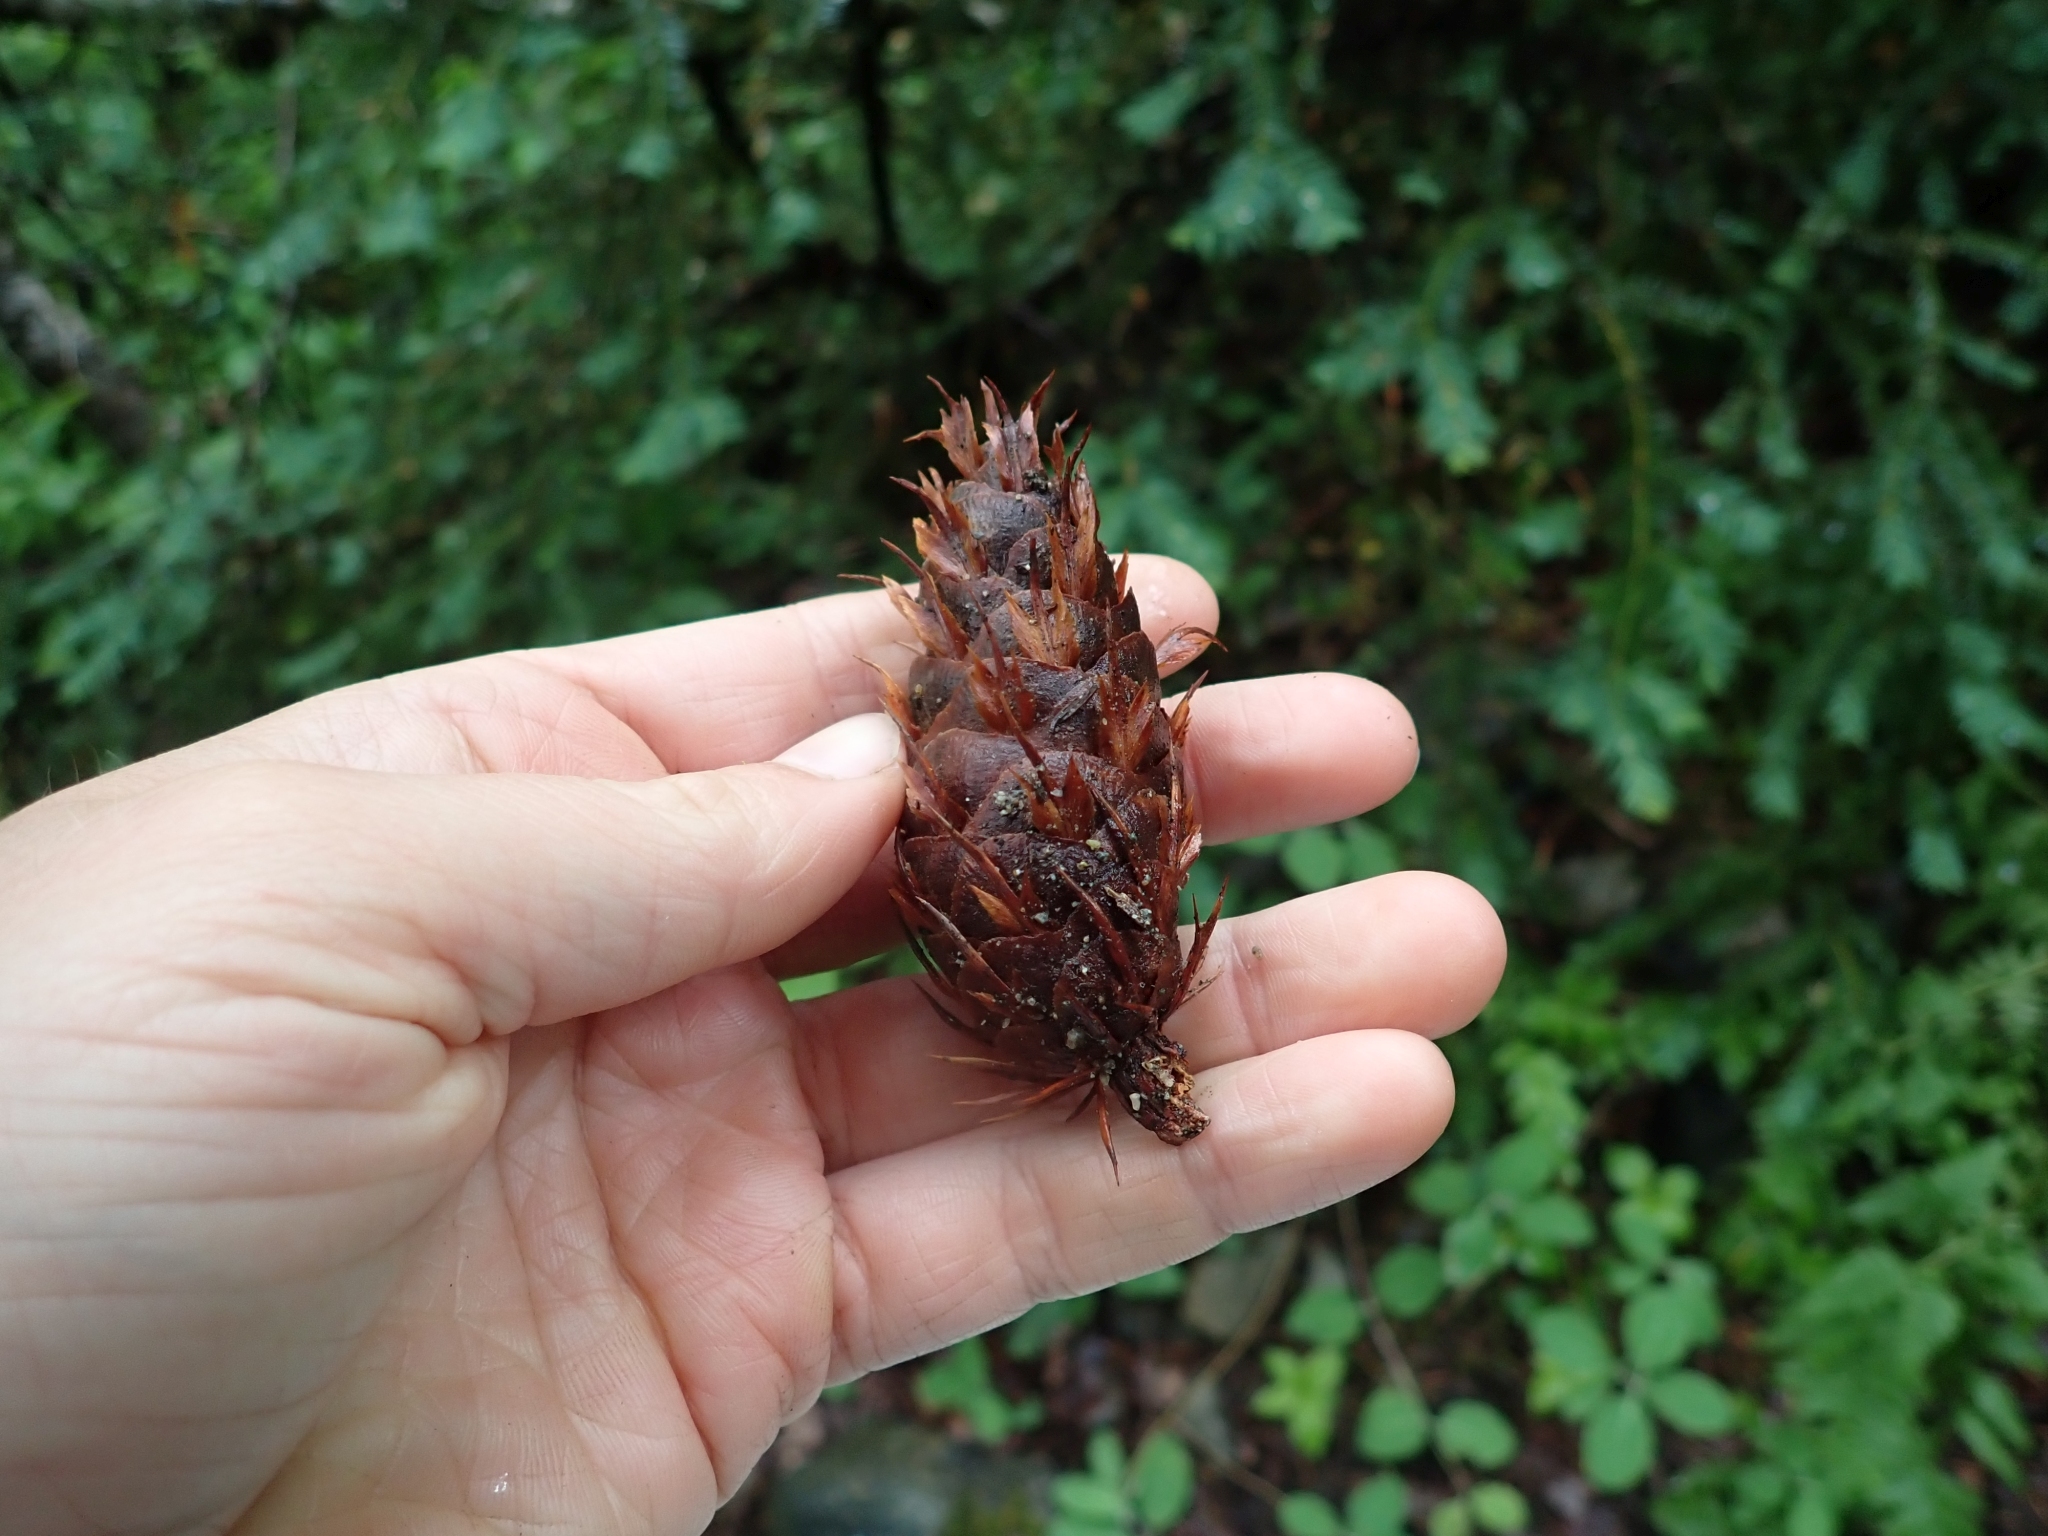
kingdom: Plantae
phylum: Tracheophyta
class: Pinopsida
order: Pinales
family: Pinaceae
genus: Pseudotsuga
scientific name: Pseudotsuga menziesii
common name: Douglas fir
